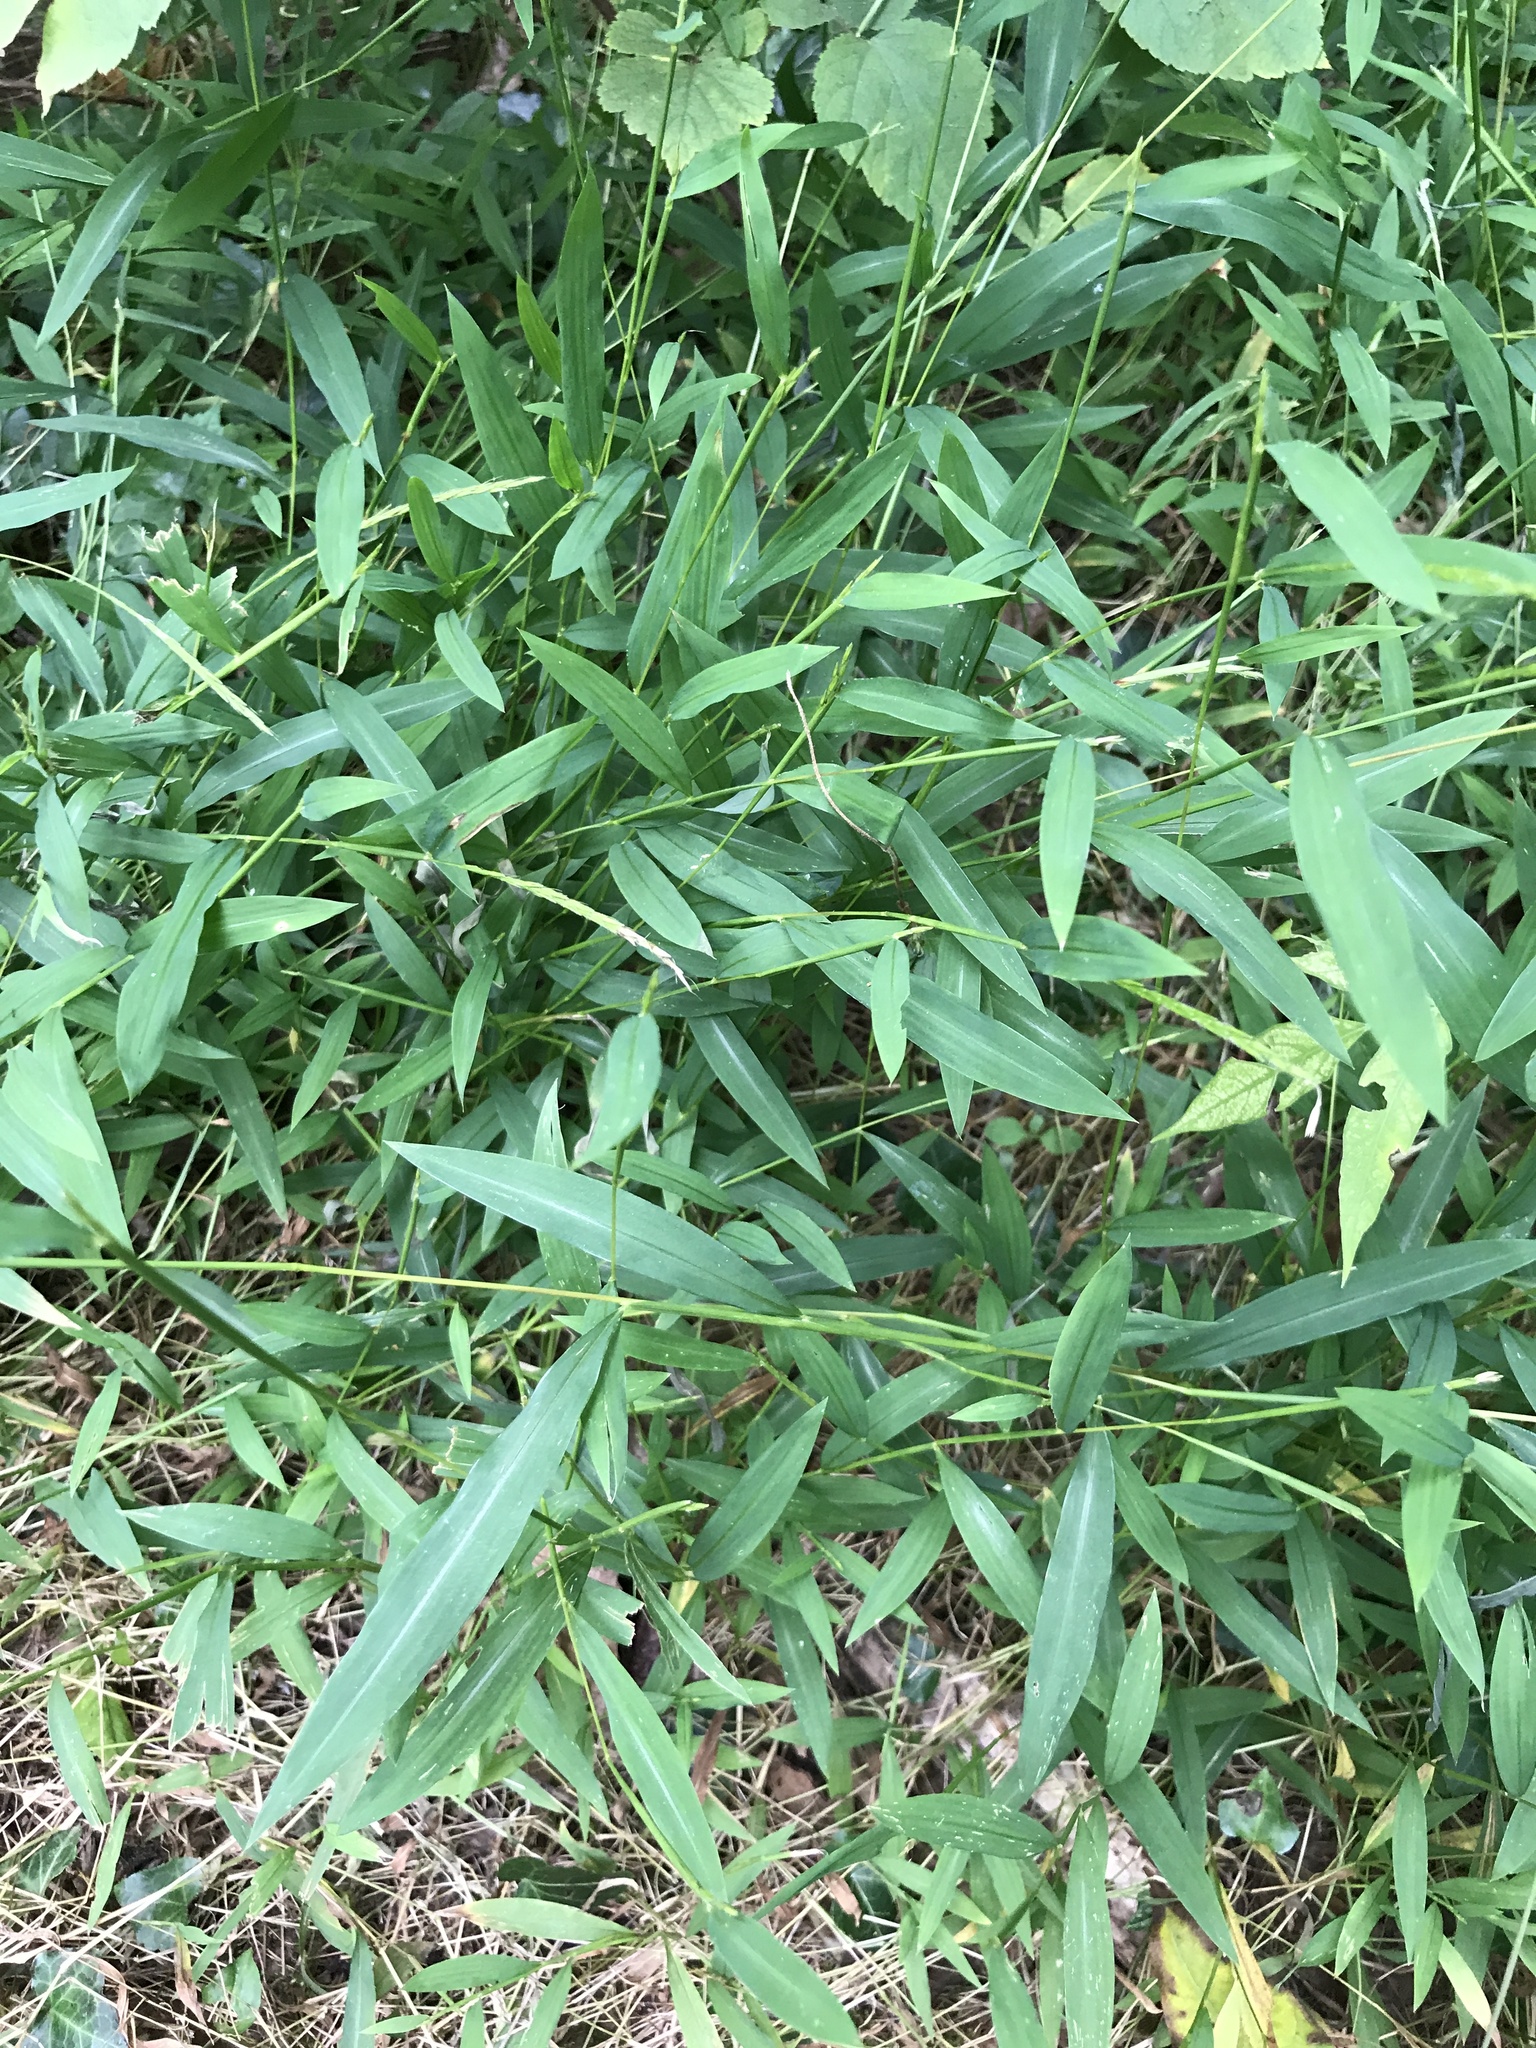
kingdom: Plantae
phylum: Tracheophyta
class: Liliopsida
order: Poales
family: Poaceae
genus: Microstegium
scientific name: Microstegium vimineum
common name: Japanese stiltgrass
